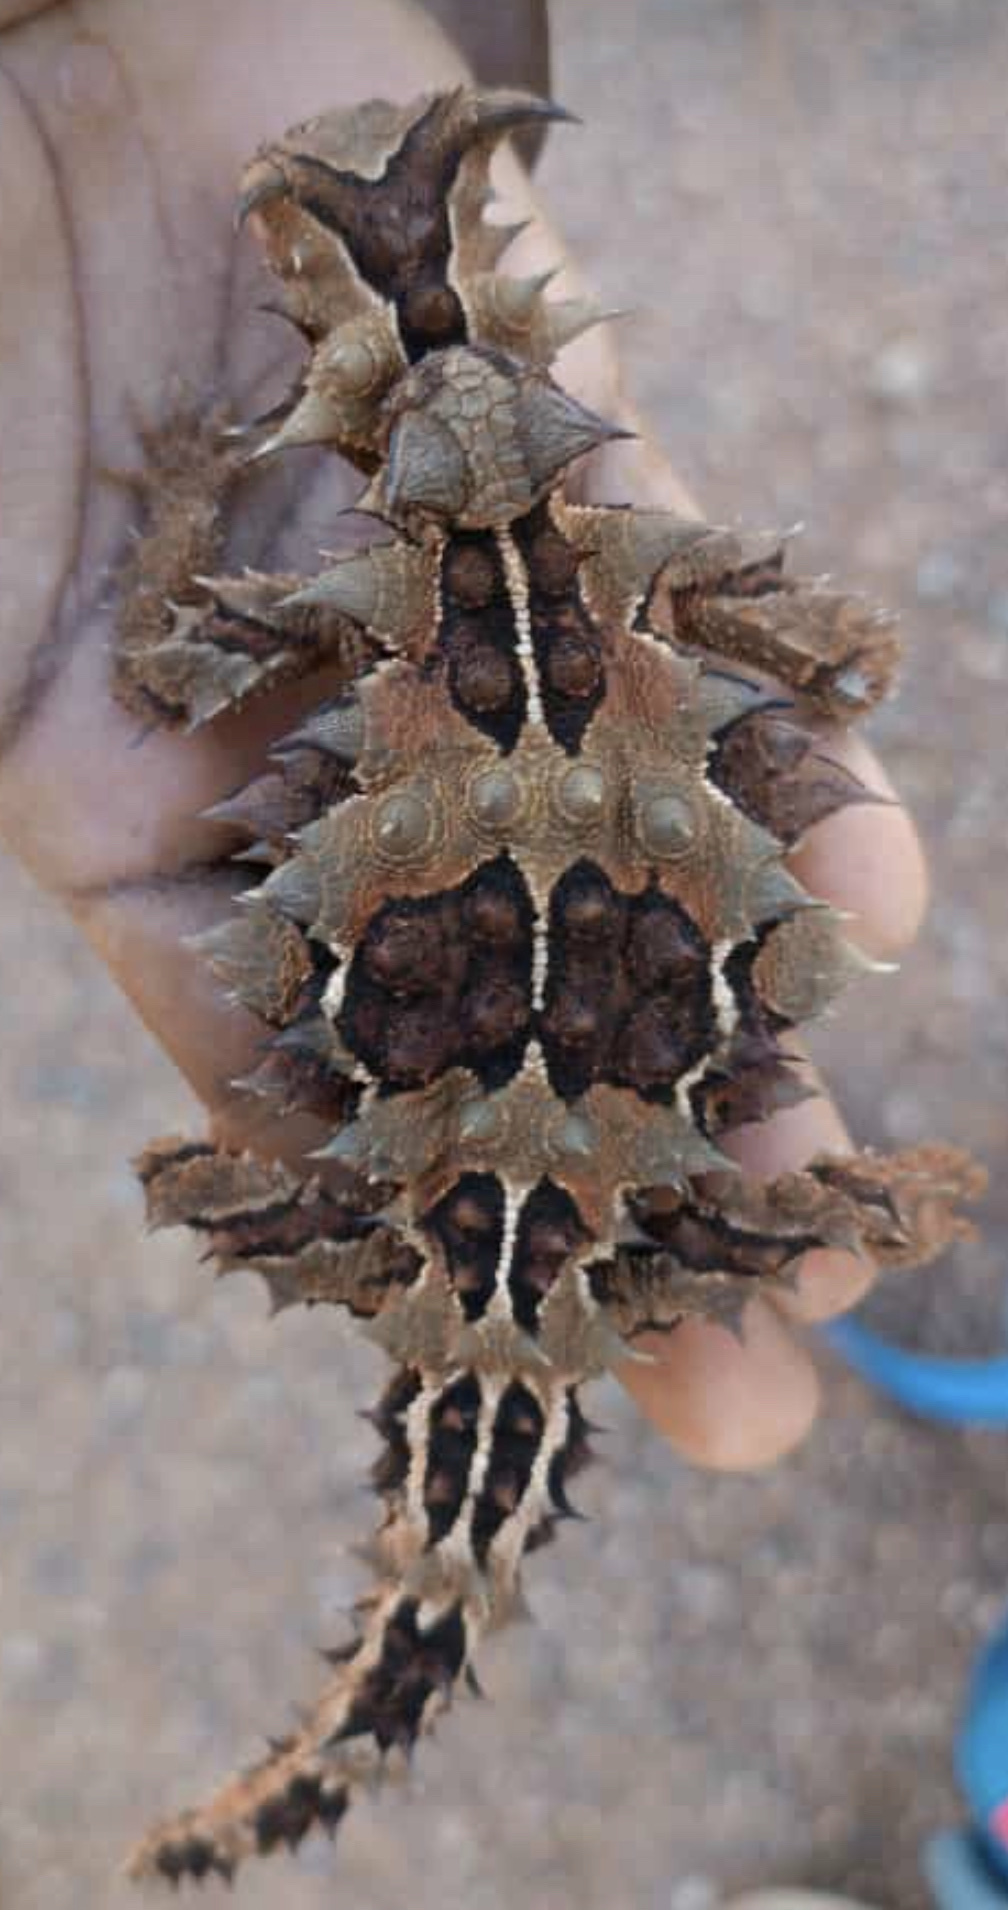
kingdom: Animalia
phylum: Chordata
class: Squamata
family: Agamidae
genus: Moloch
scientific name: Moloch horridus
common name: Mountain devil
